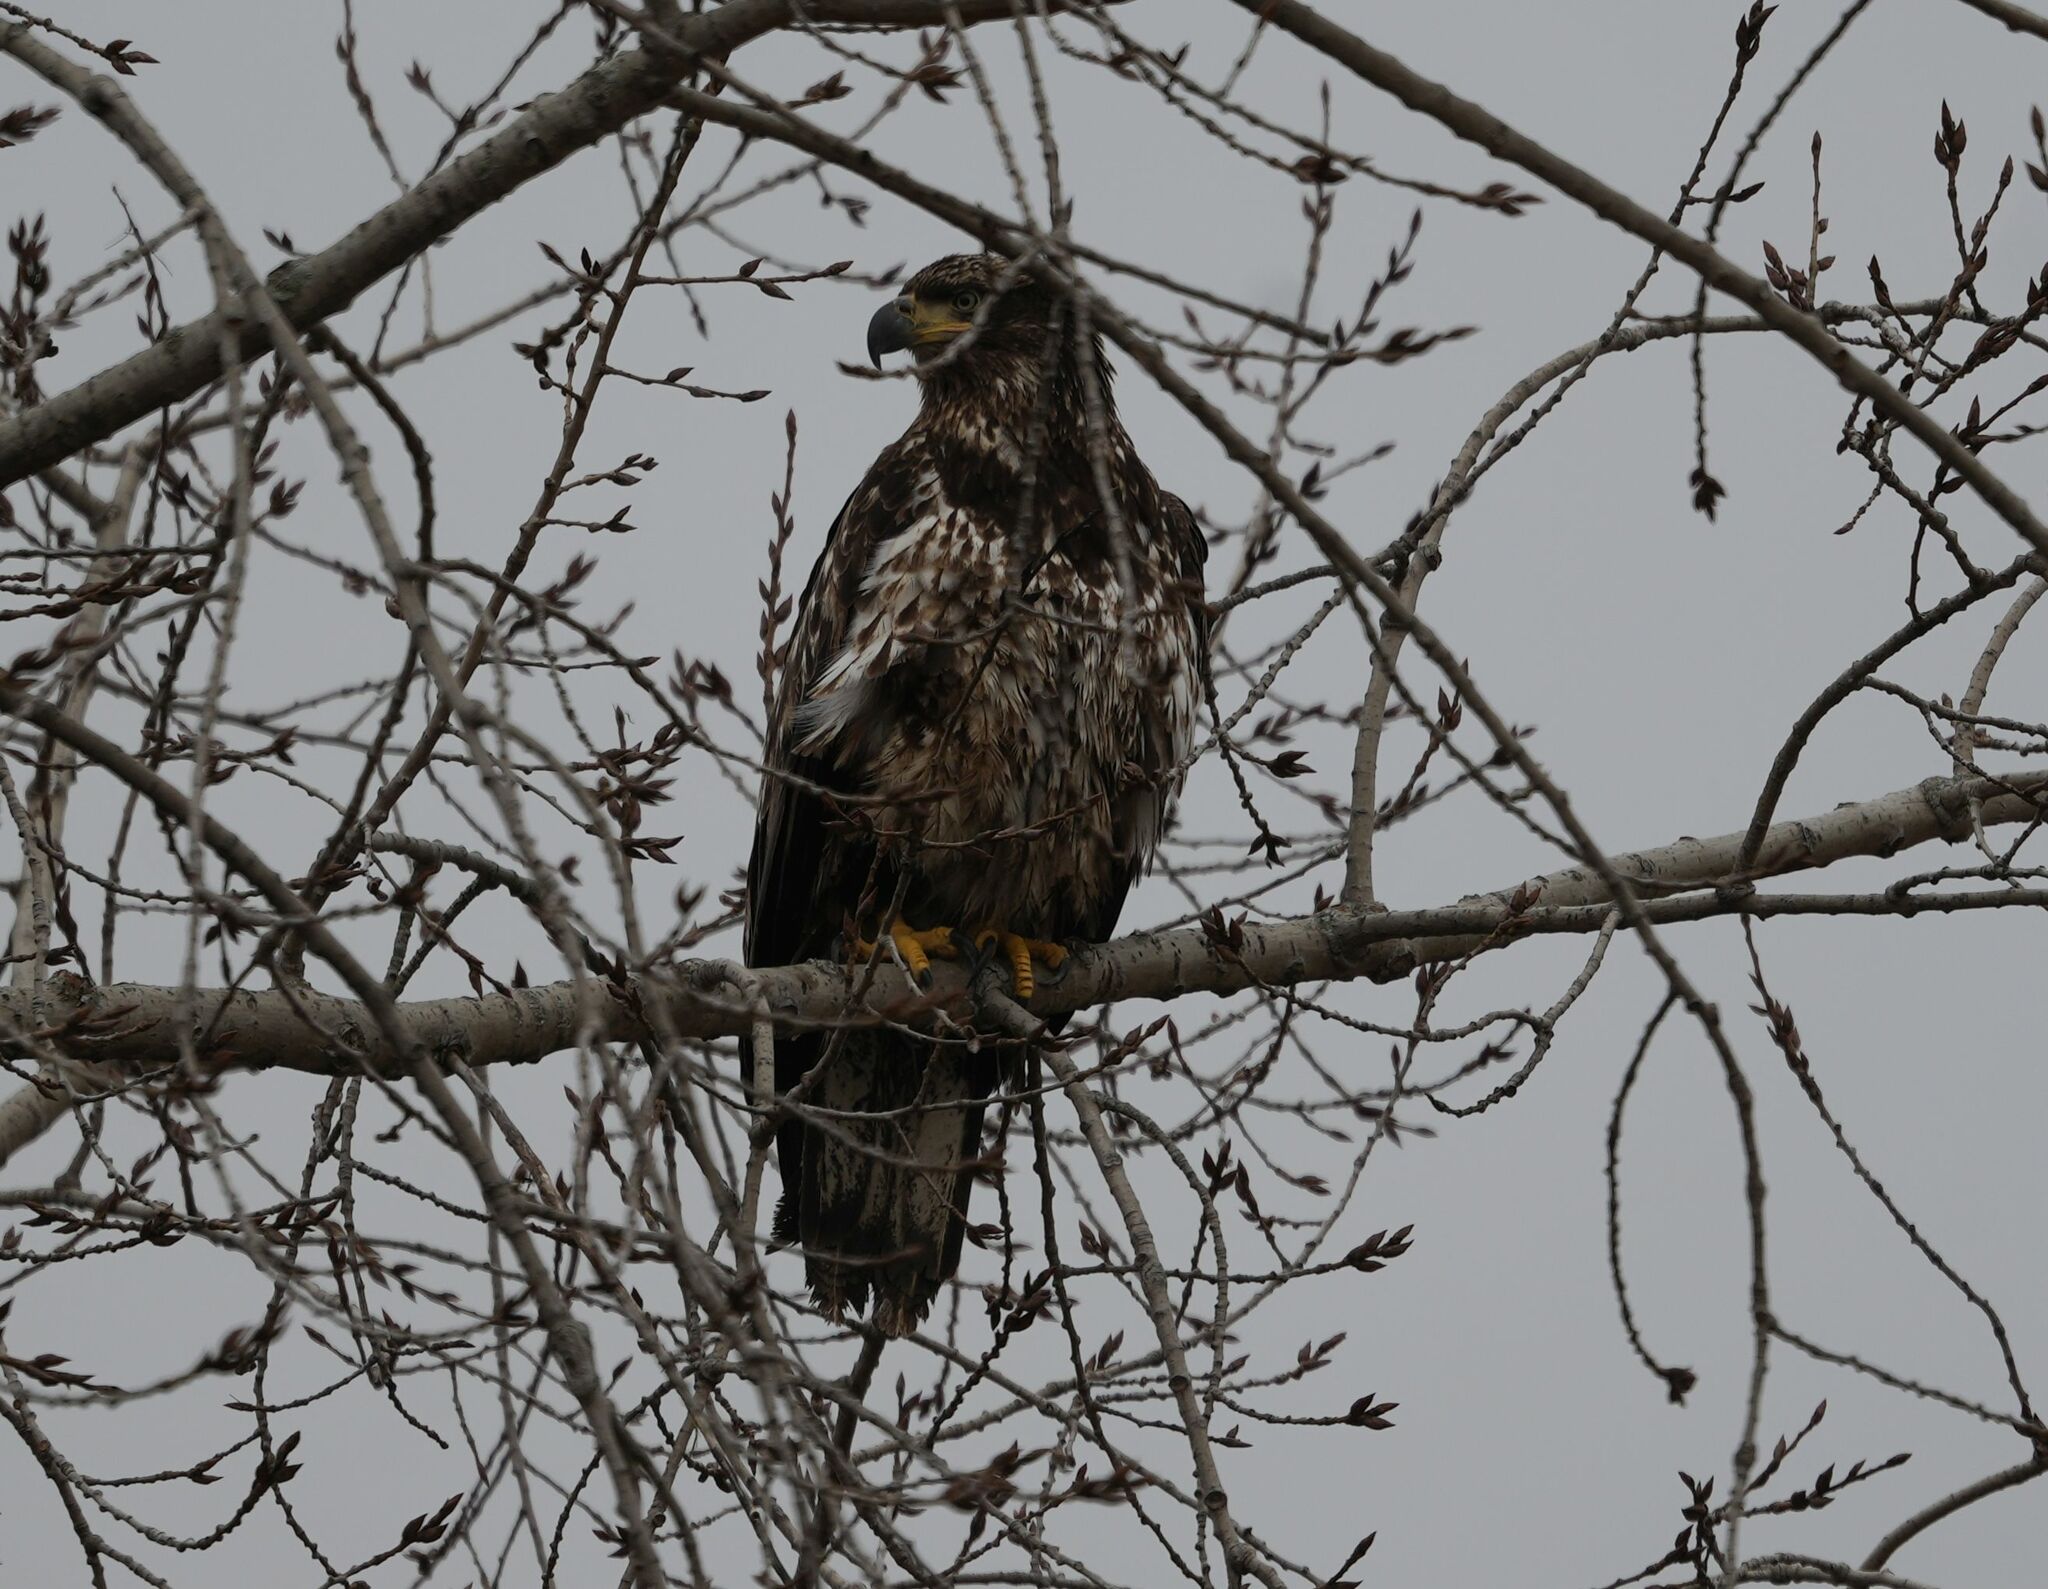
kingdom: Animalia
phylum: Chordata
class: Aves
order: Accipitriformes
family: Accipitridae
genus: Haliaeetus
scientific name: Haliaeetus leucocephalus
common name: Bald eagle
